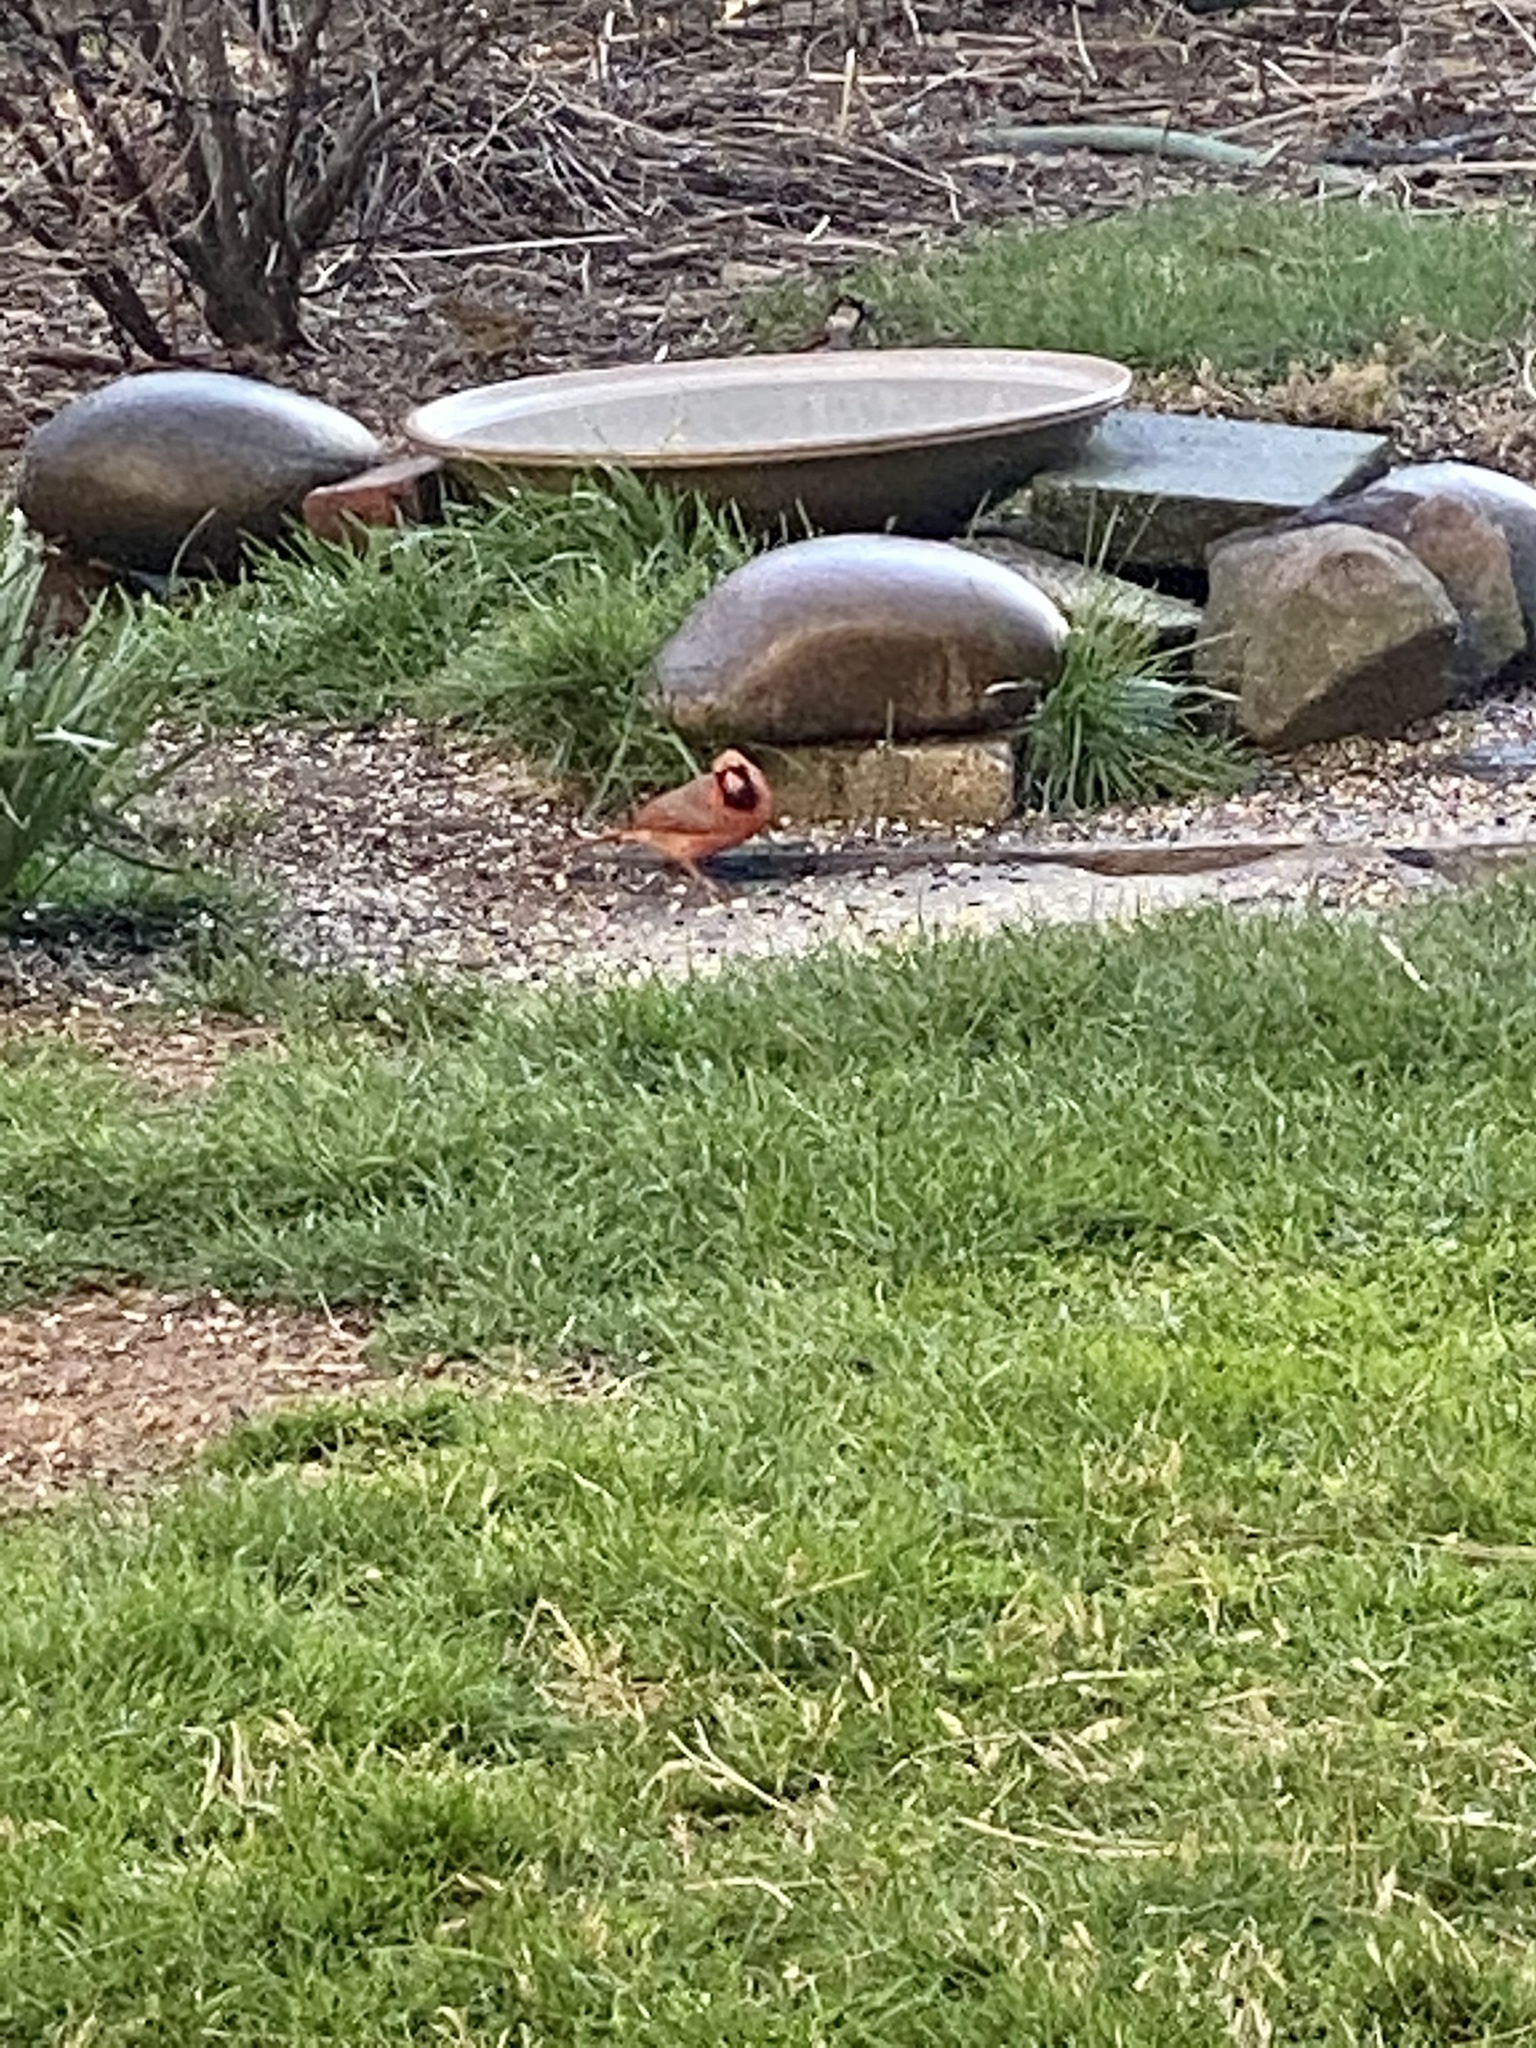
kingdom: Animalia
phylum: Chordata
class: Aves
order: Passeriformes
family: Cardinalidae
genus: Cardinalis
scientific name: Cardinalis cardinalis
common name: Northern cardinal
